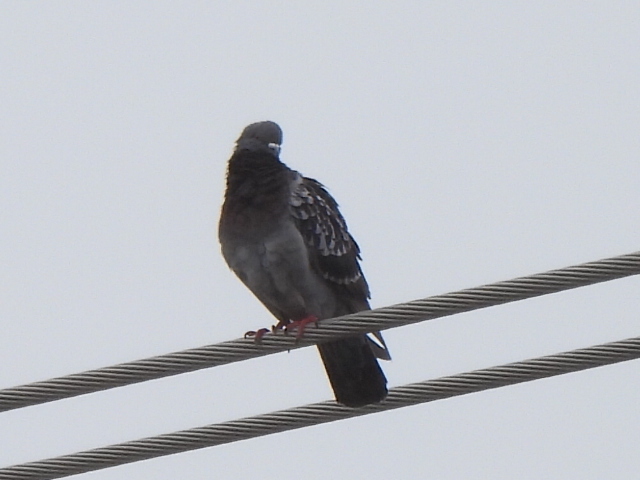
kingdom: Animalia
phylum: Chordata
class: Aves
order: Columbiformes
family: Columbidae
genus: Columba
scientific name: Columba livia
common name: Rock pigeon
